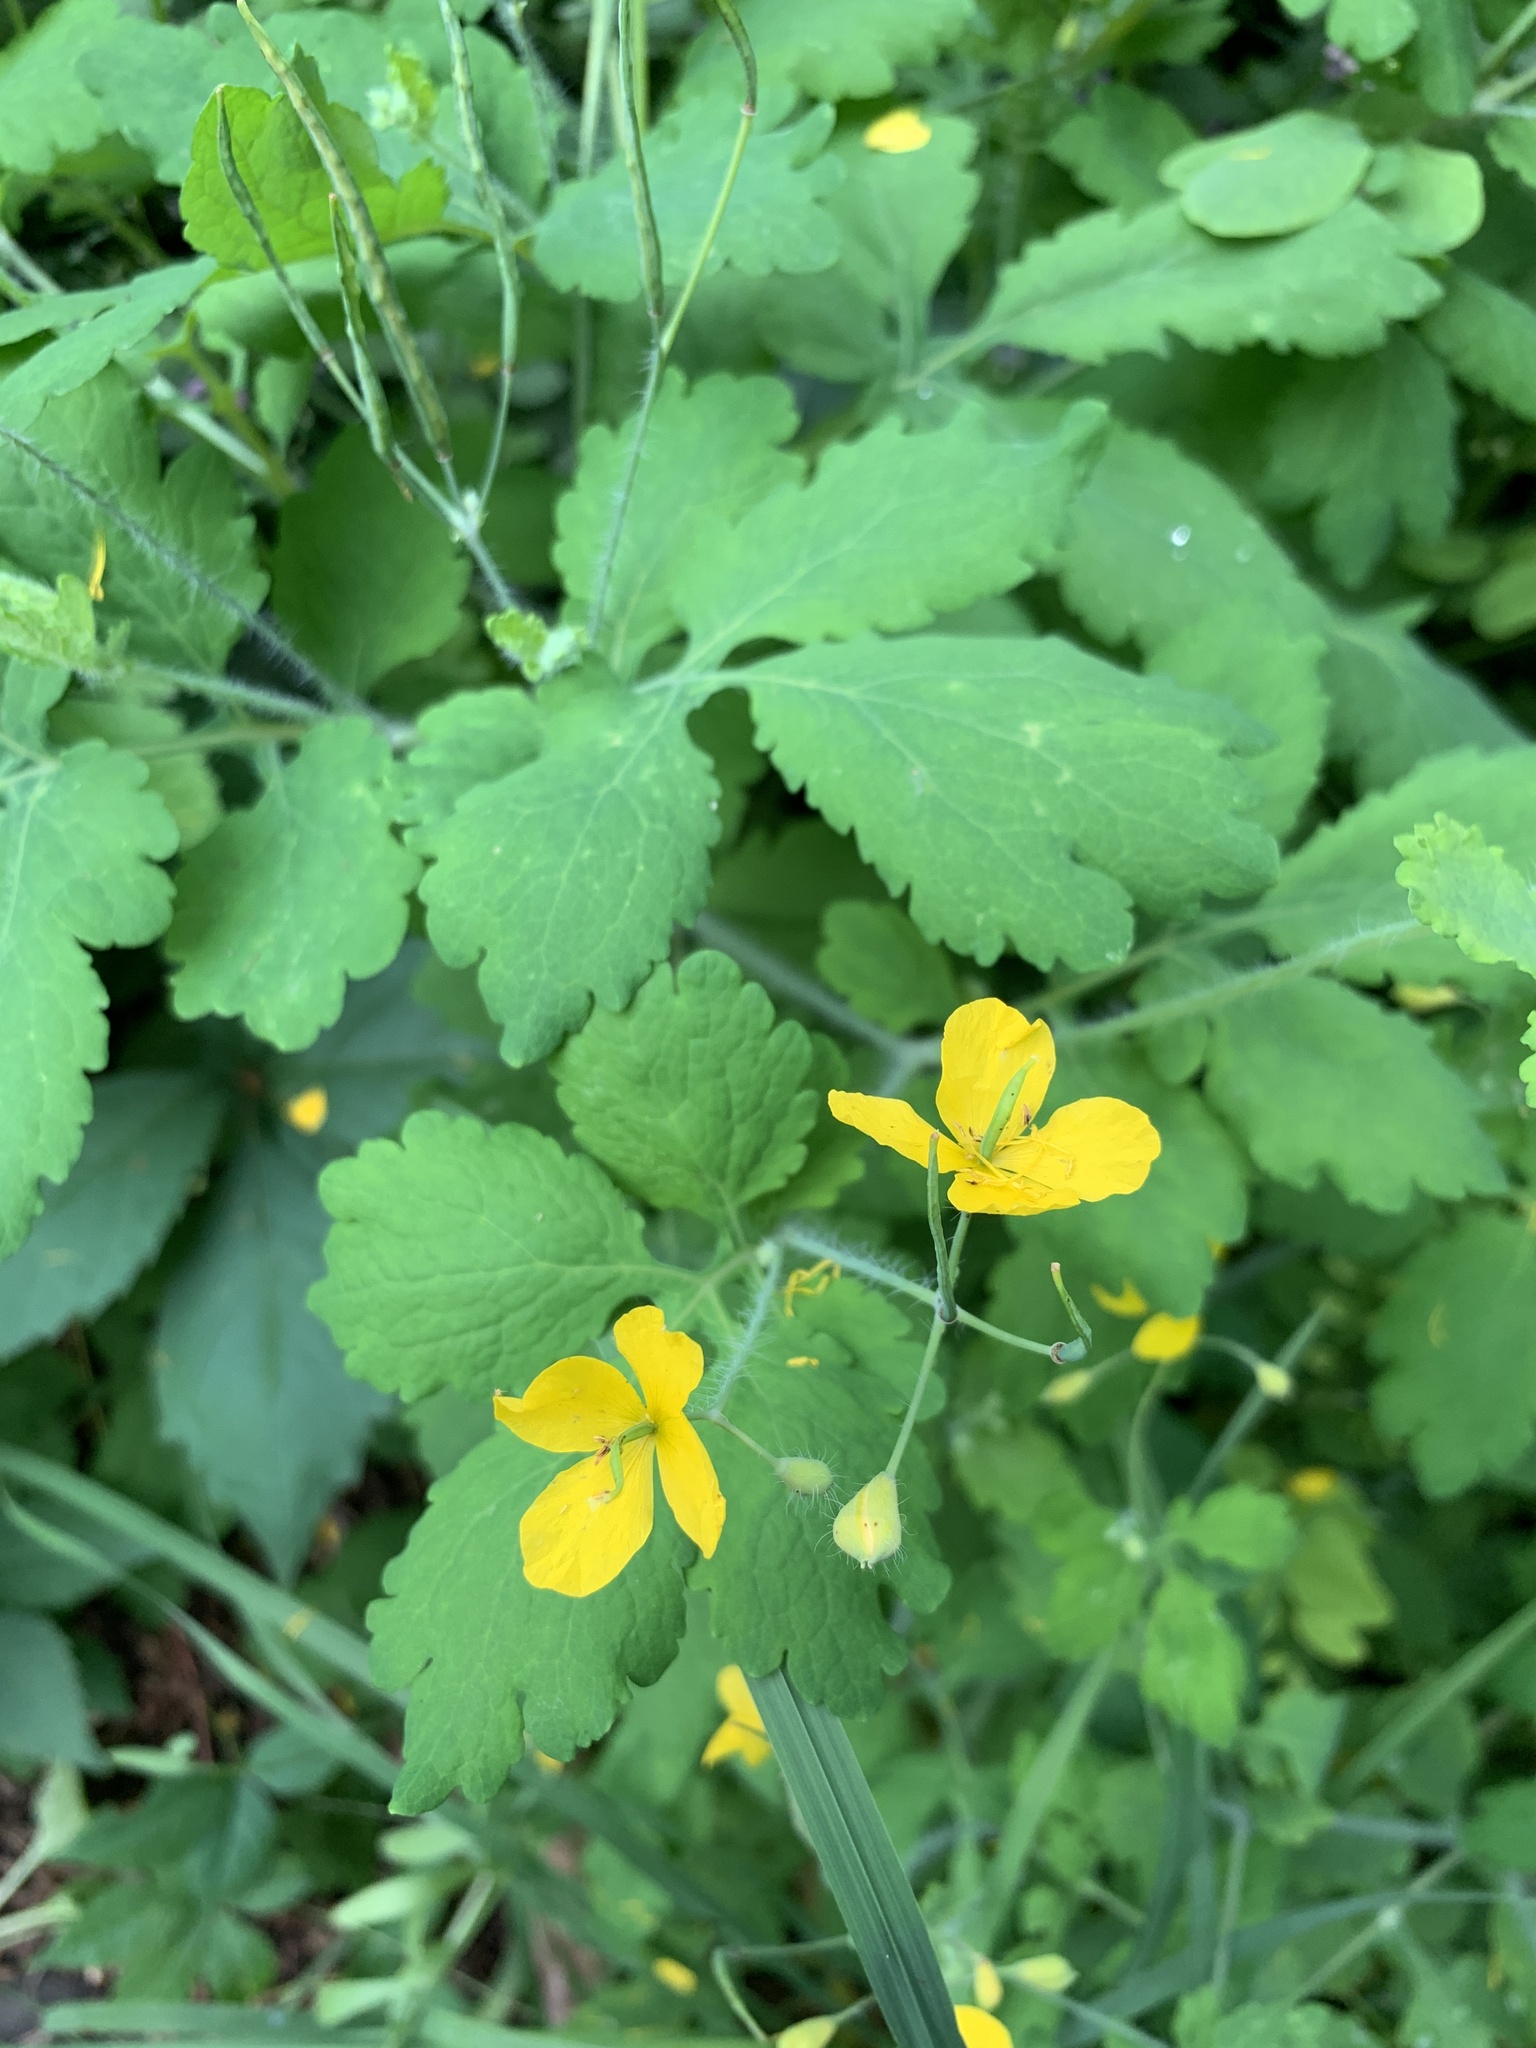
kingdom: Plantae
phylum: Tracheophyta
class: Magnoliopsida
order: Ranunculales
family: Papaveraceae
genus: Chelidonium
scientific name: Chelidonium majus
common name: Greater celandine
